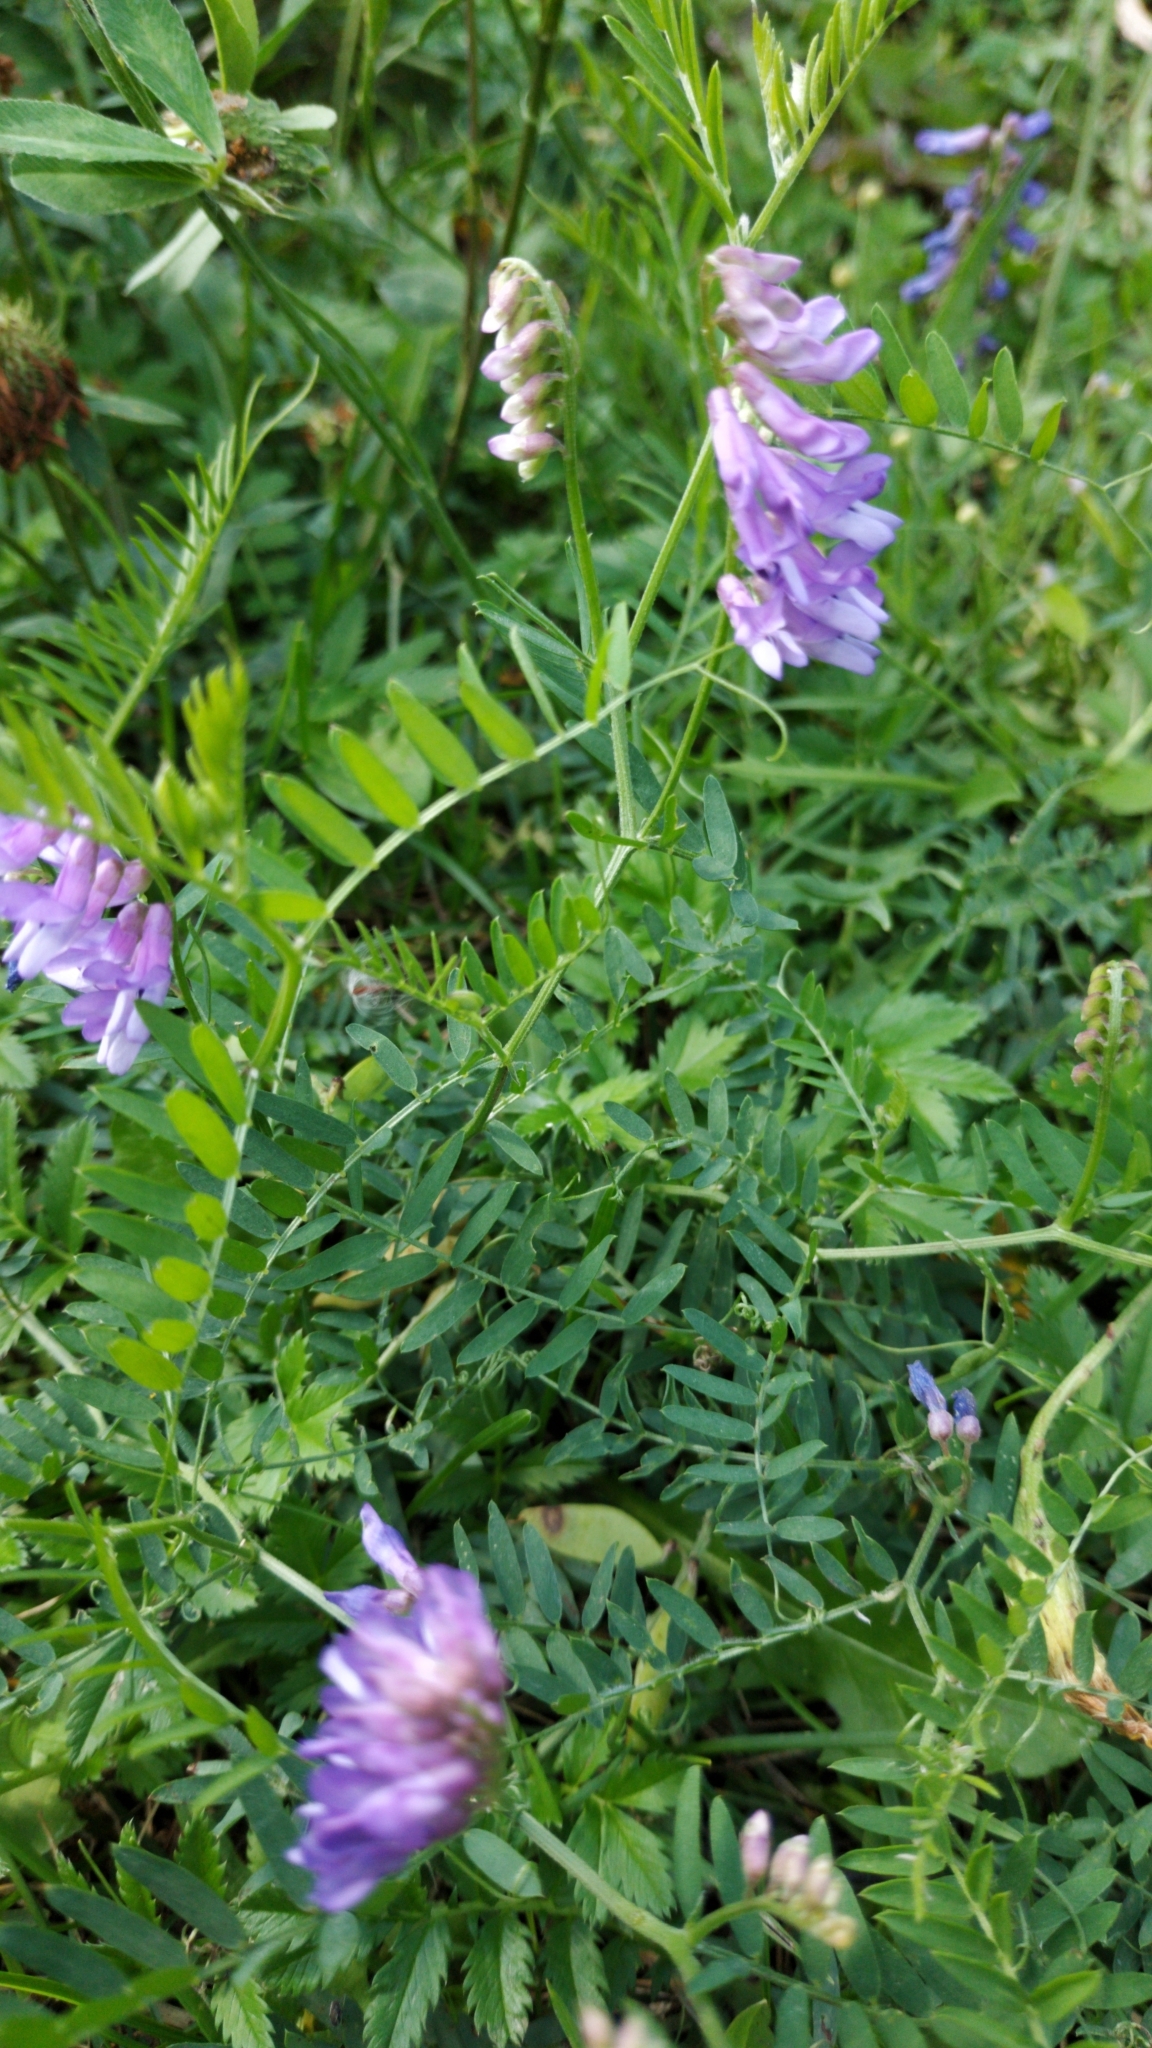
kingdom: Plantae
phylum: Tracheophyta
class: Magnoliopsida
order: Fabales
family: Fabaceae
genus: Vicia
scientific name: Vicia cracca
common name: Bird vetch
